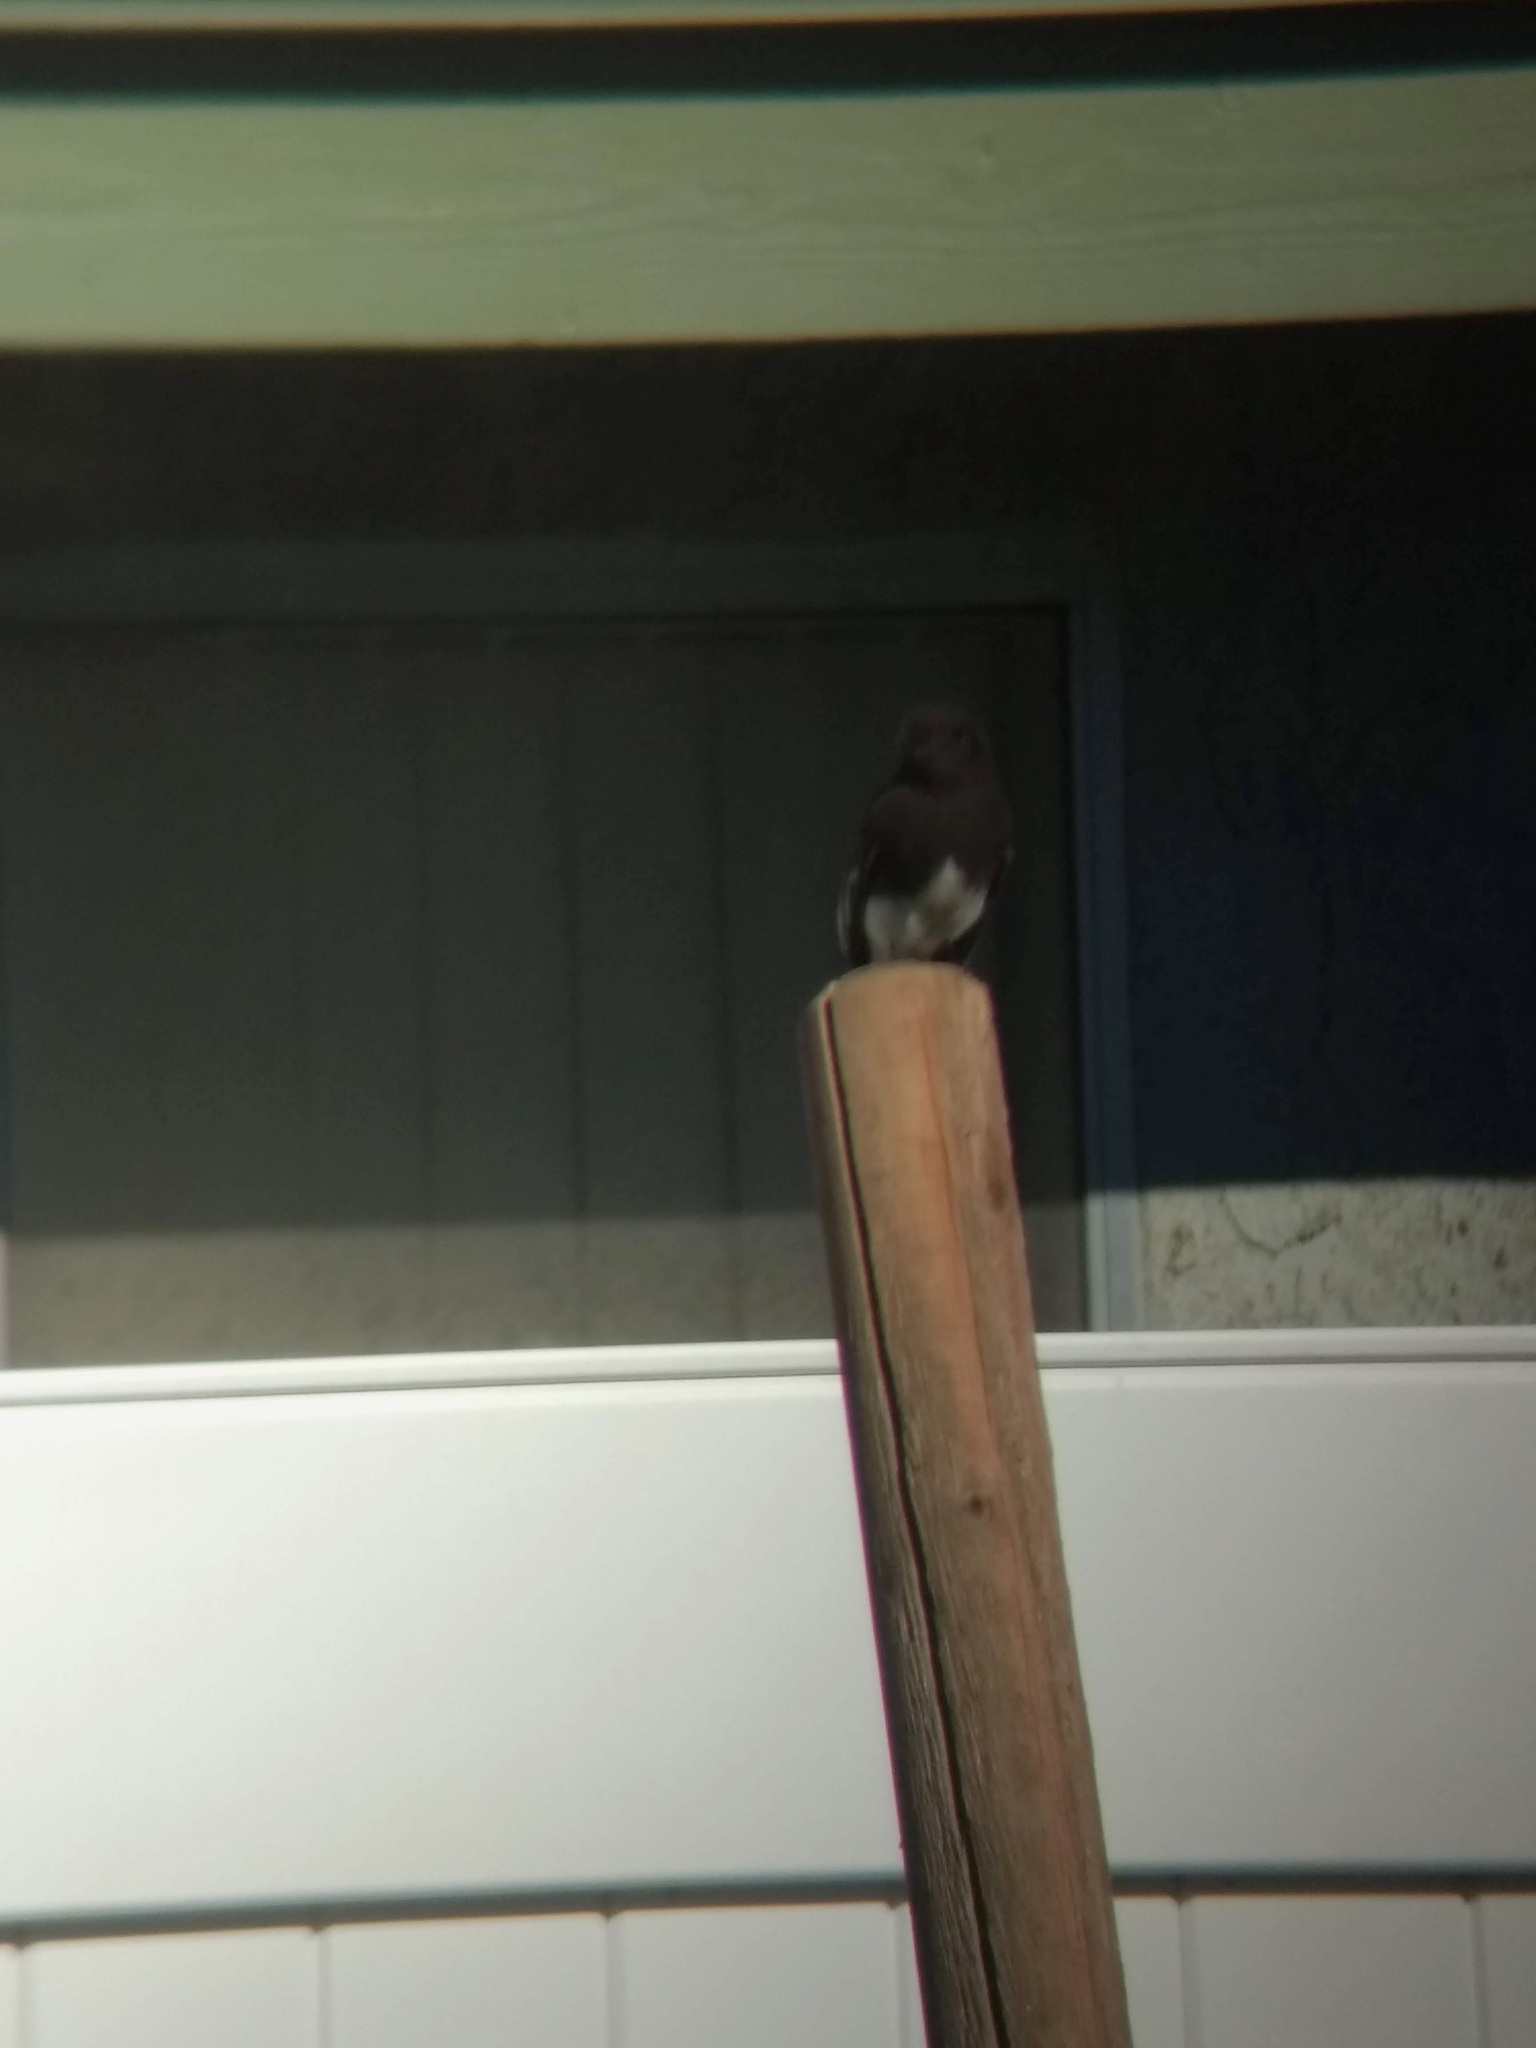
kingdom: Animalia
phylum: Chordata
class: Aves
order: Passeriformes
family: Tyrannidae
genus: Sayornis
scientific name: Sayornis nigricans
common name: Black phoebe
